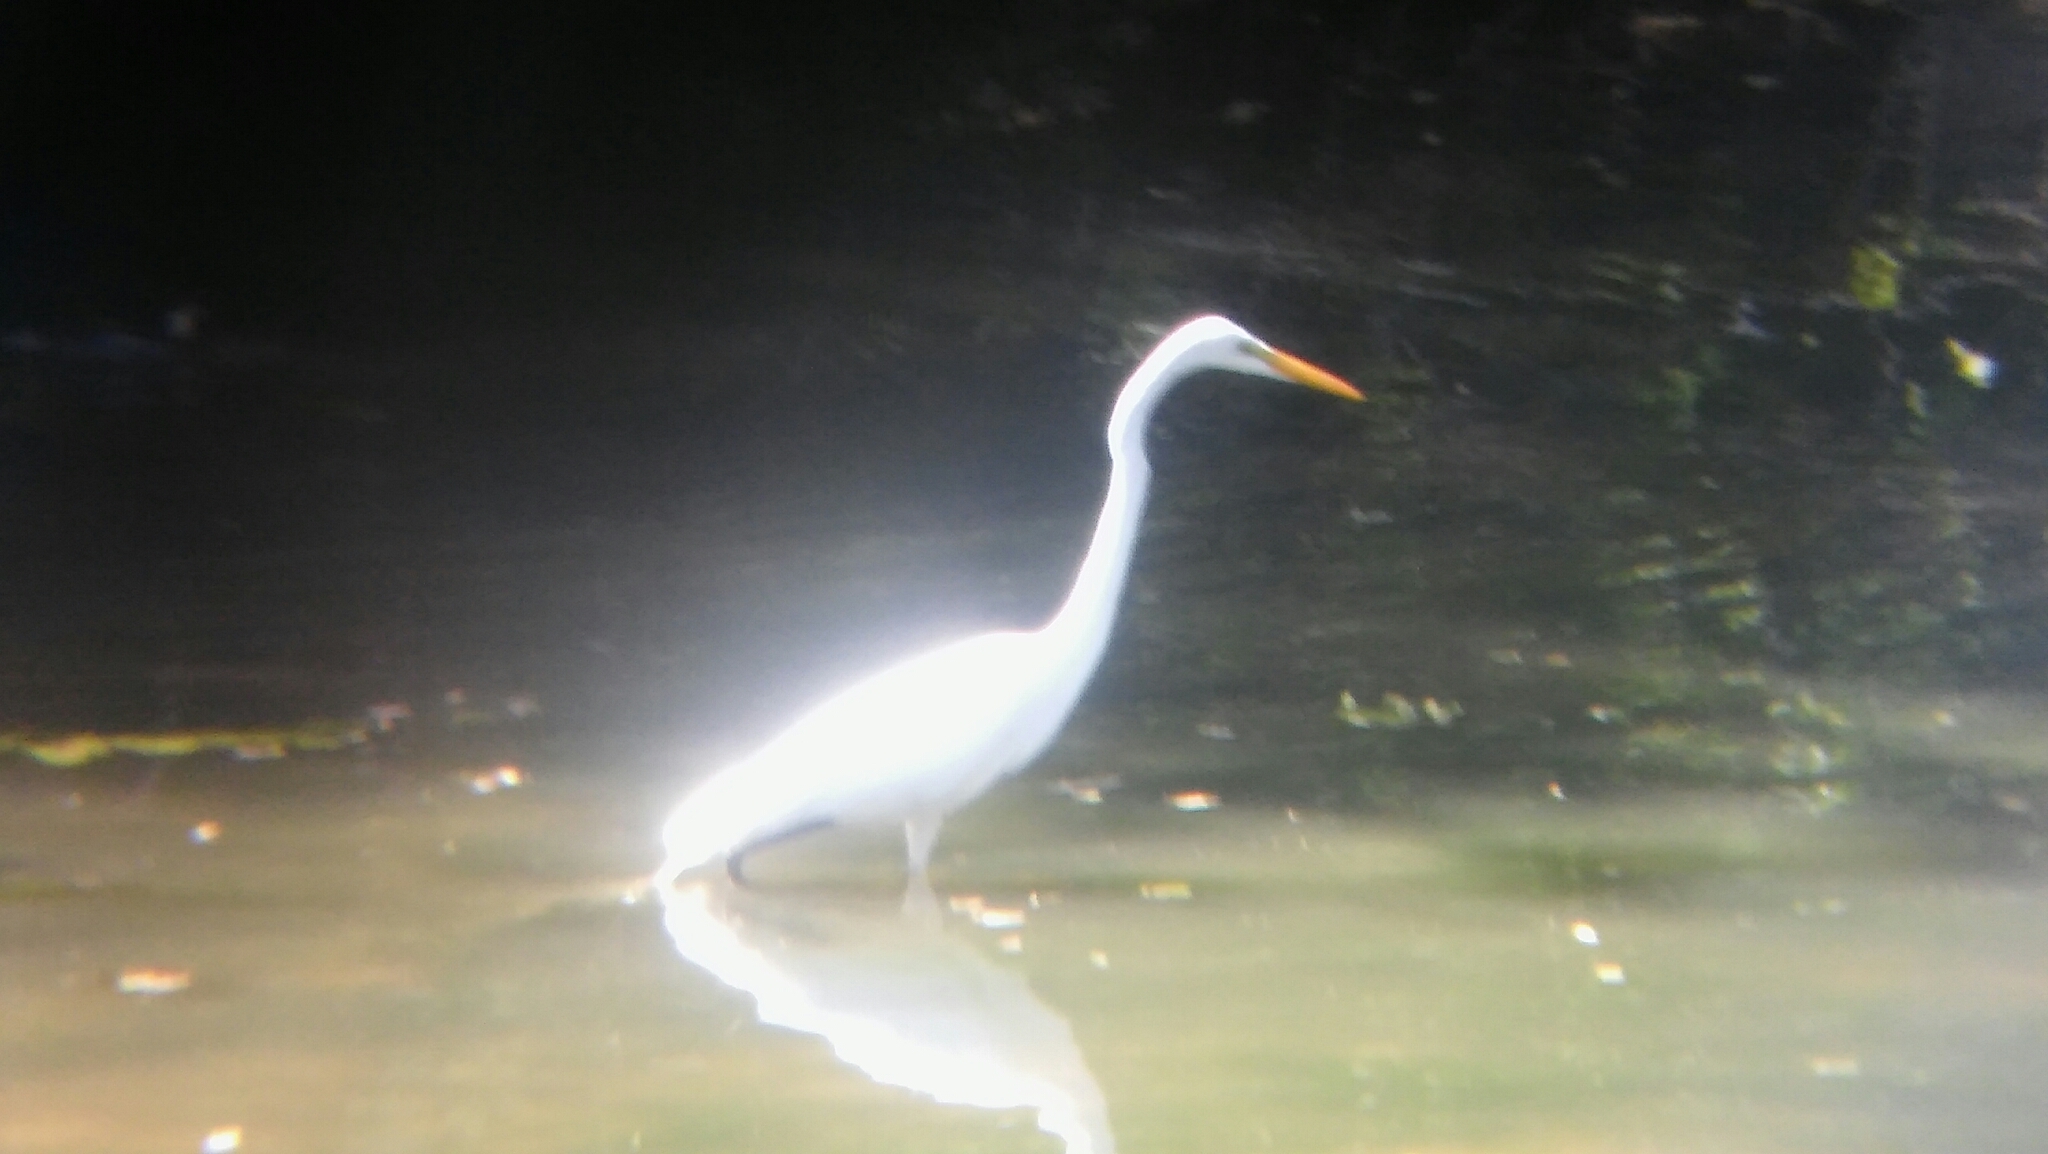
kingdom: Animalia
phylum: Chordata
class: Aves
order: Pelecaniformes
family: Ardeidae
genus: Ardea
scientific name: Ardea alba
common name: Great egret
